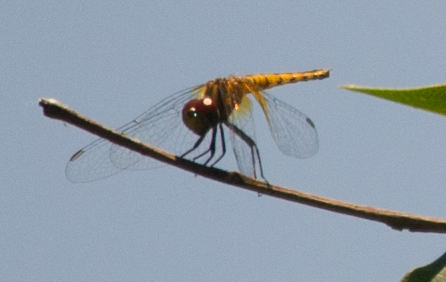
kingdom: Animalia
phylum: Arthropoda
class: Insecta
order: Odonata
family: Libellulidae
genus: Aethriamanta
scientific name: Aethriamanta rezia
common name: Pygmy basker
